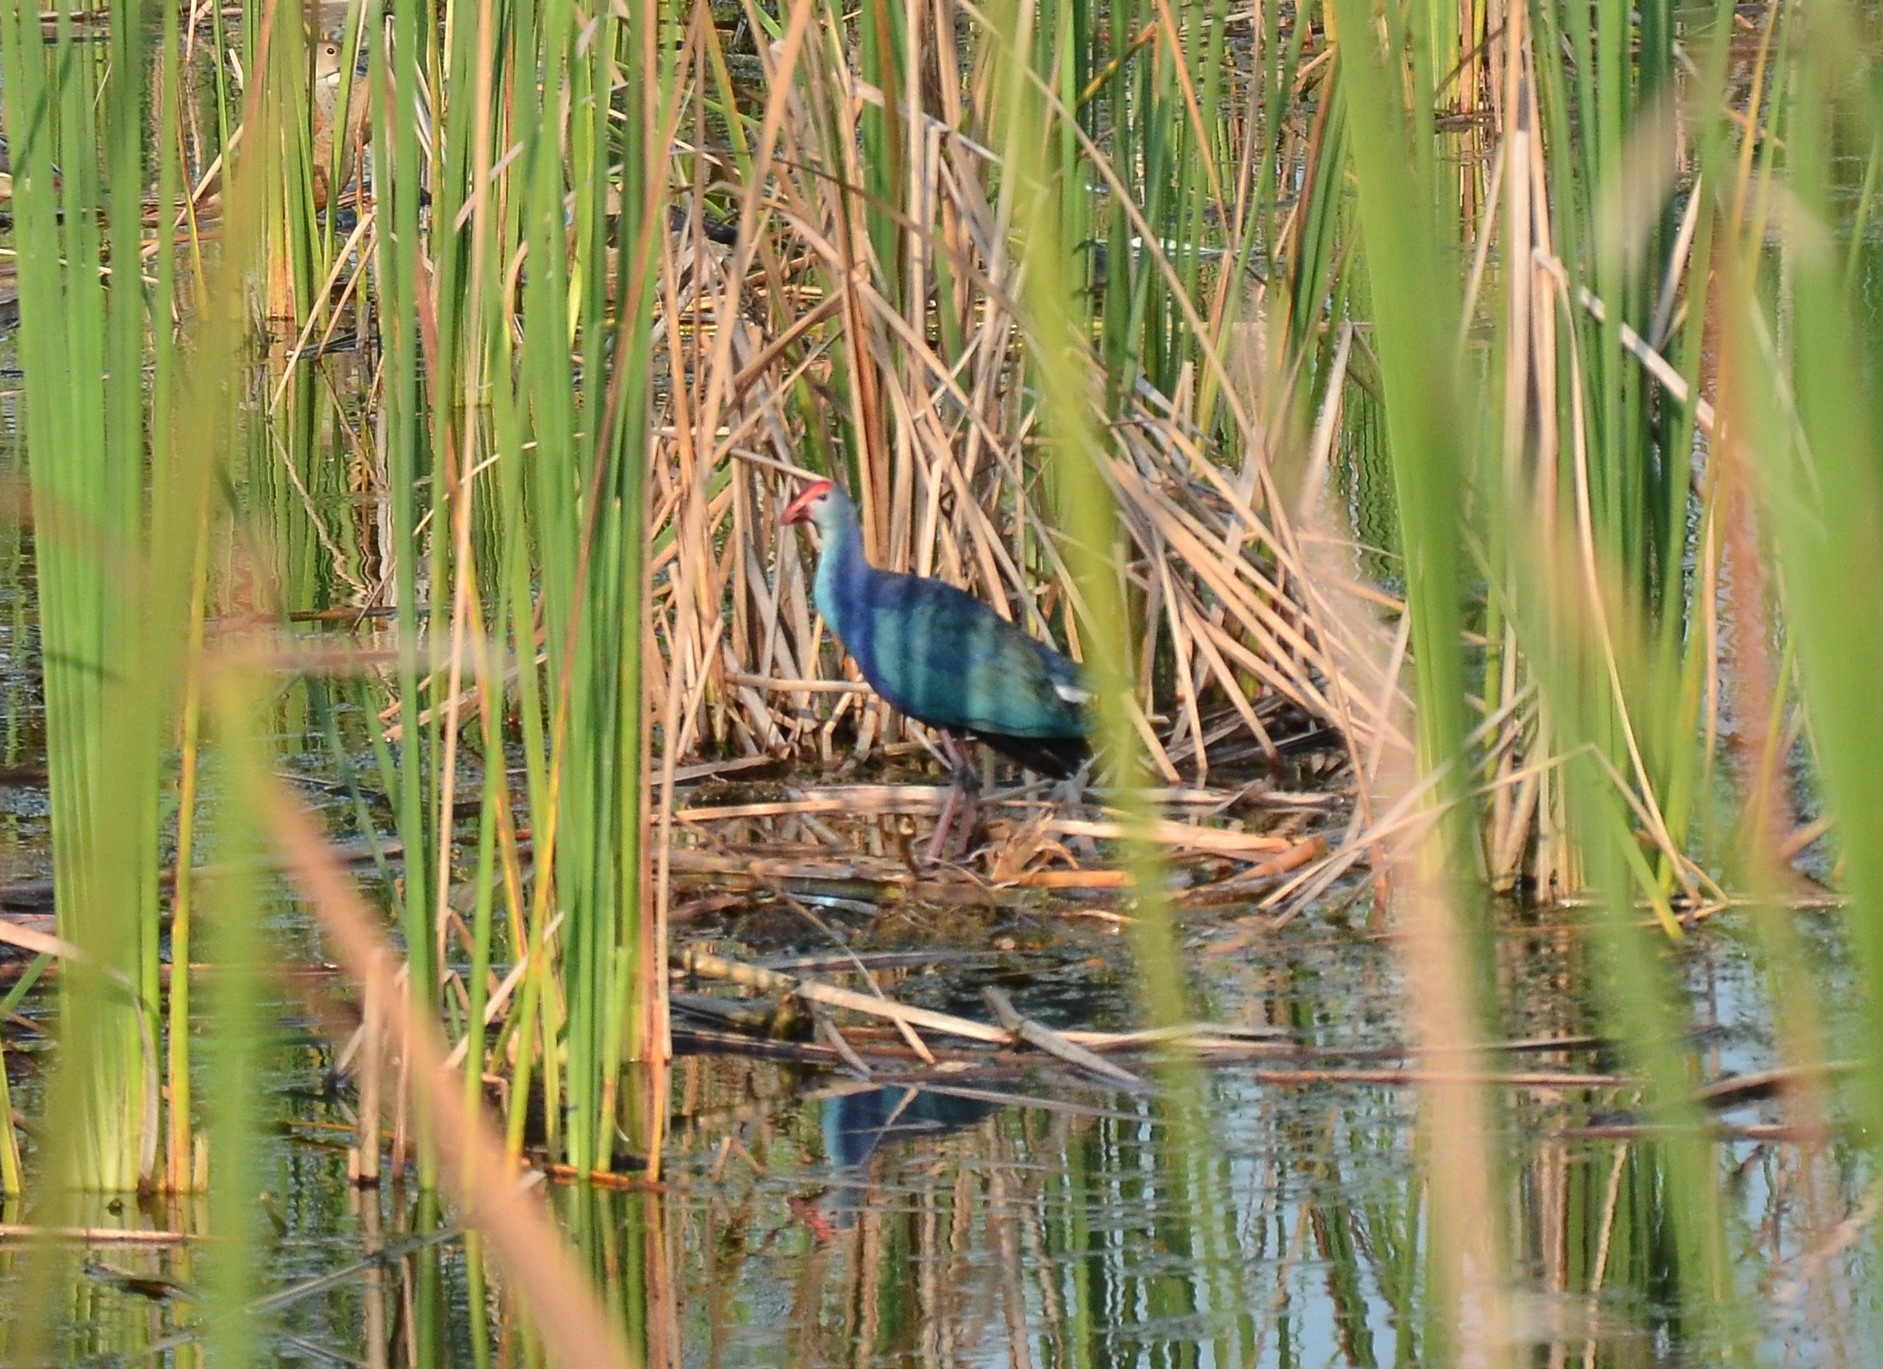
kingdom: Animalia
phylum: Chordata
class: Aves
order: Gruiformes
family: Rallidae
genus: Porphyrio
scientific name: Porphyrio porphyrio
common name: Purple swamphen
